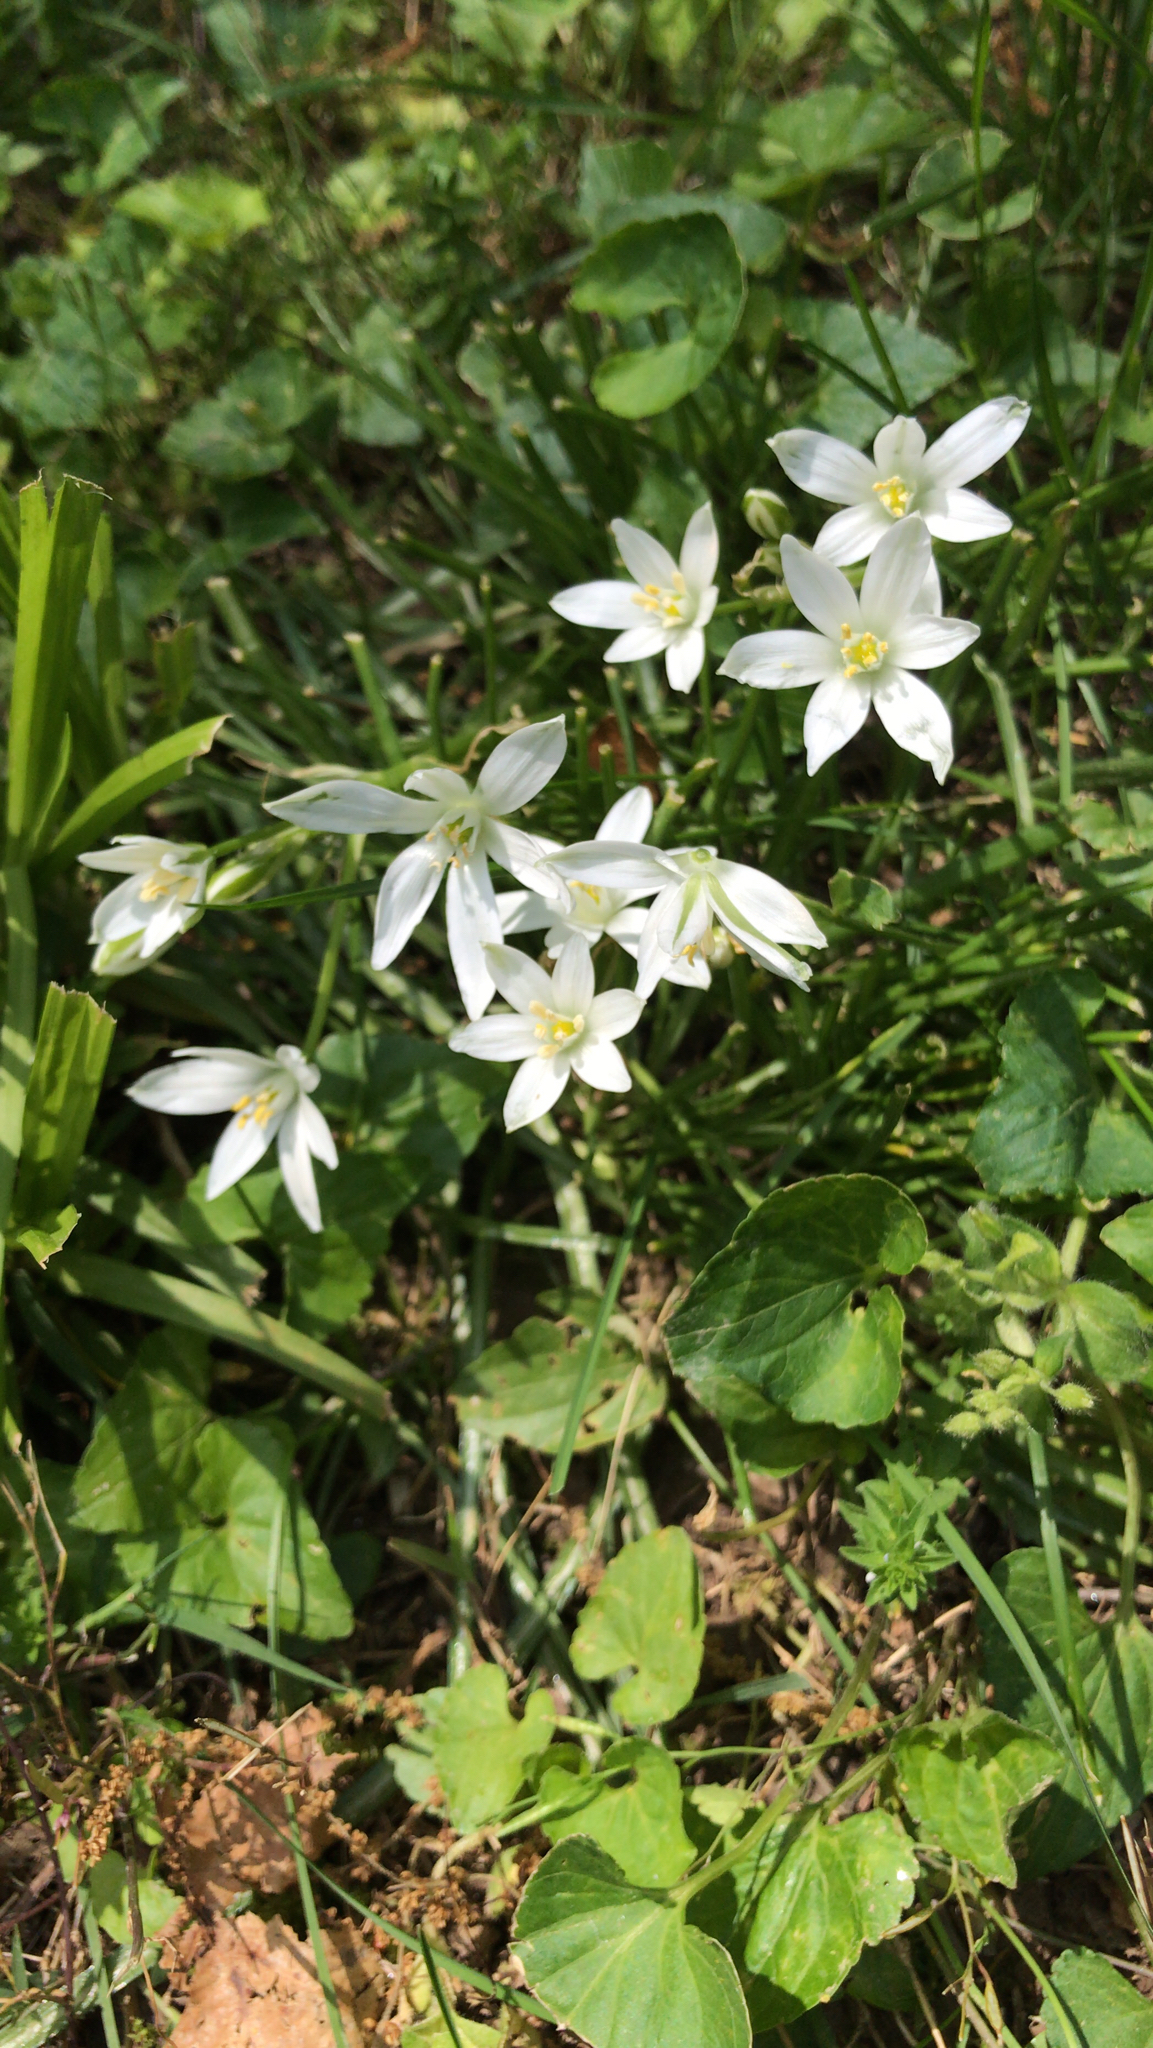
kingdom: Plantae
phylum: Tracheophyta
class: Liliopsida
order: Asparagales
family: Asparagaceae
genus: Ornithogalum
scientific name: Ornithogalum umbellatum
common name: Garden star-of-bethlehem
